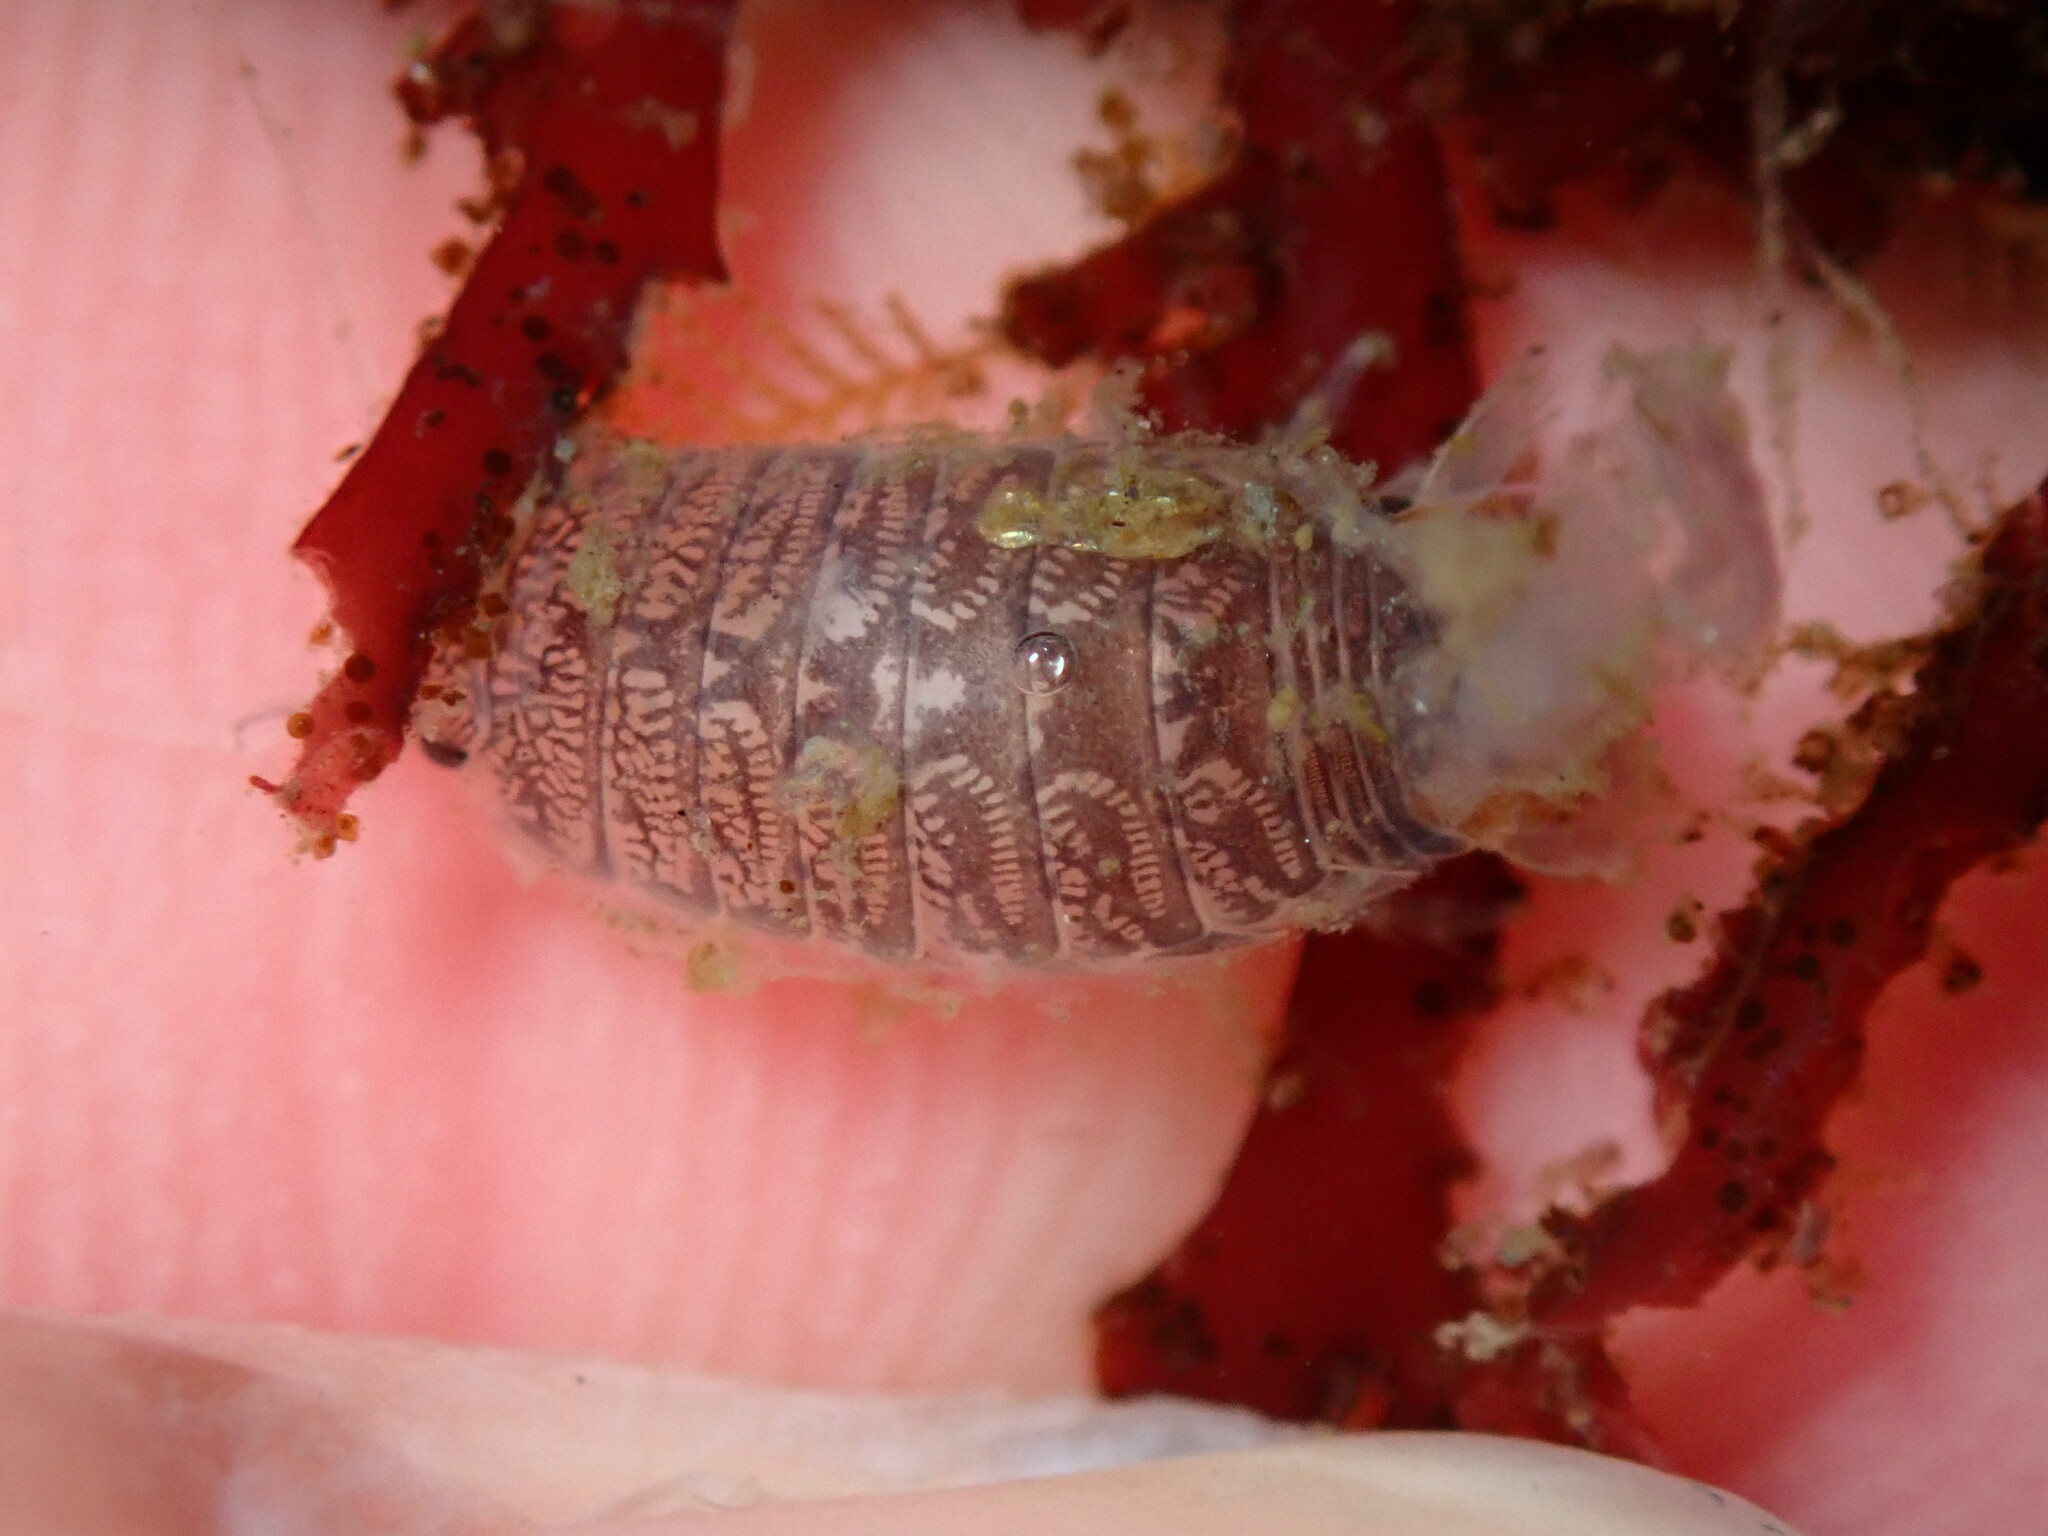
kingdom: Animalia
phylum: Arthropoda
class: Malacostraca
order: Isopoda
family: Cirolanidae
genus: Cirolana
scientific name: Cirolana harfordi
